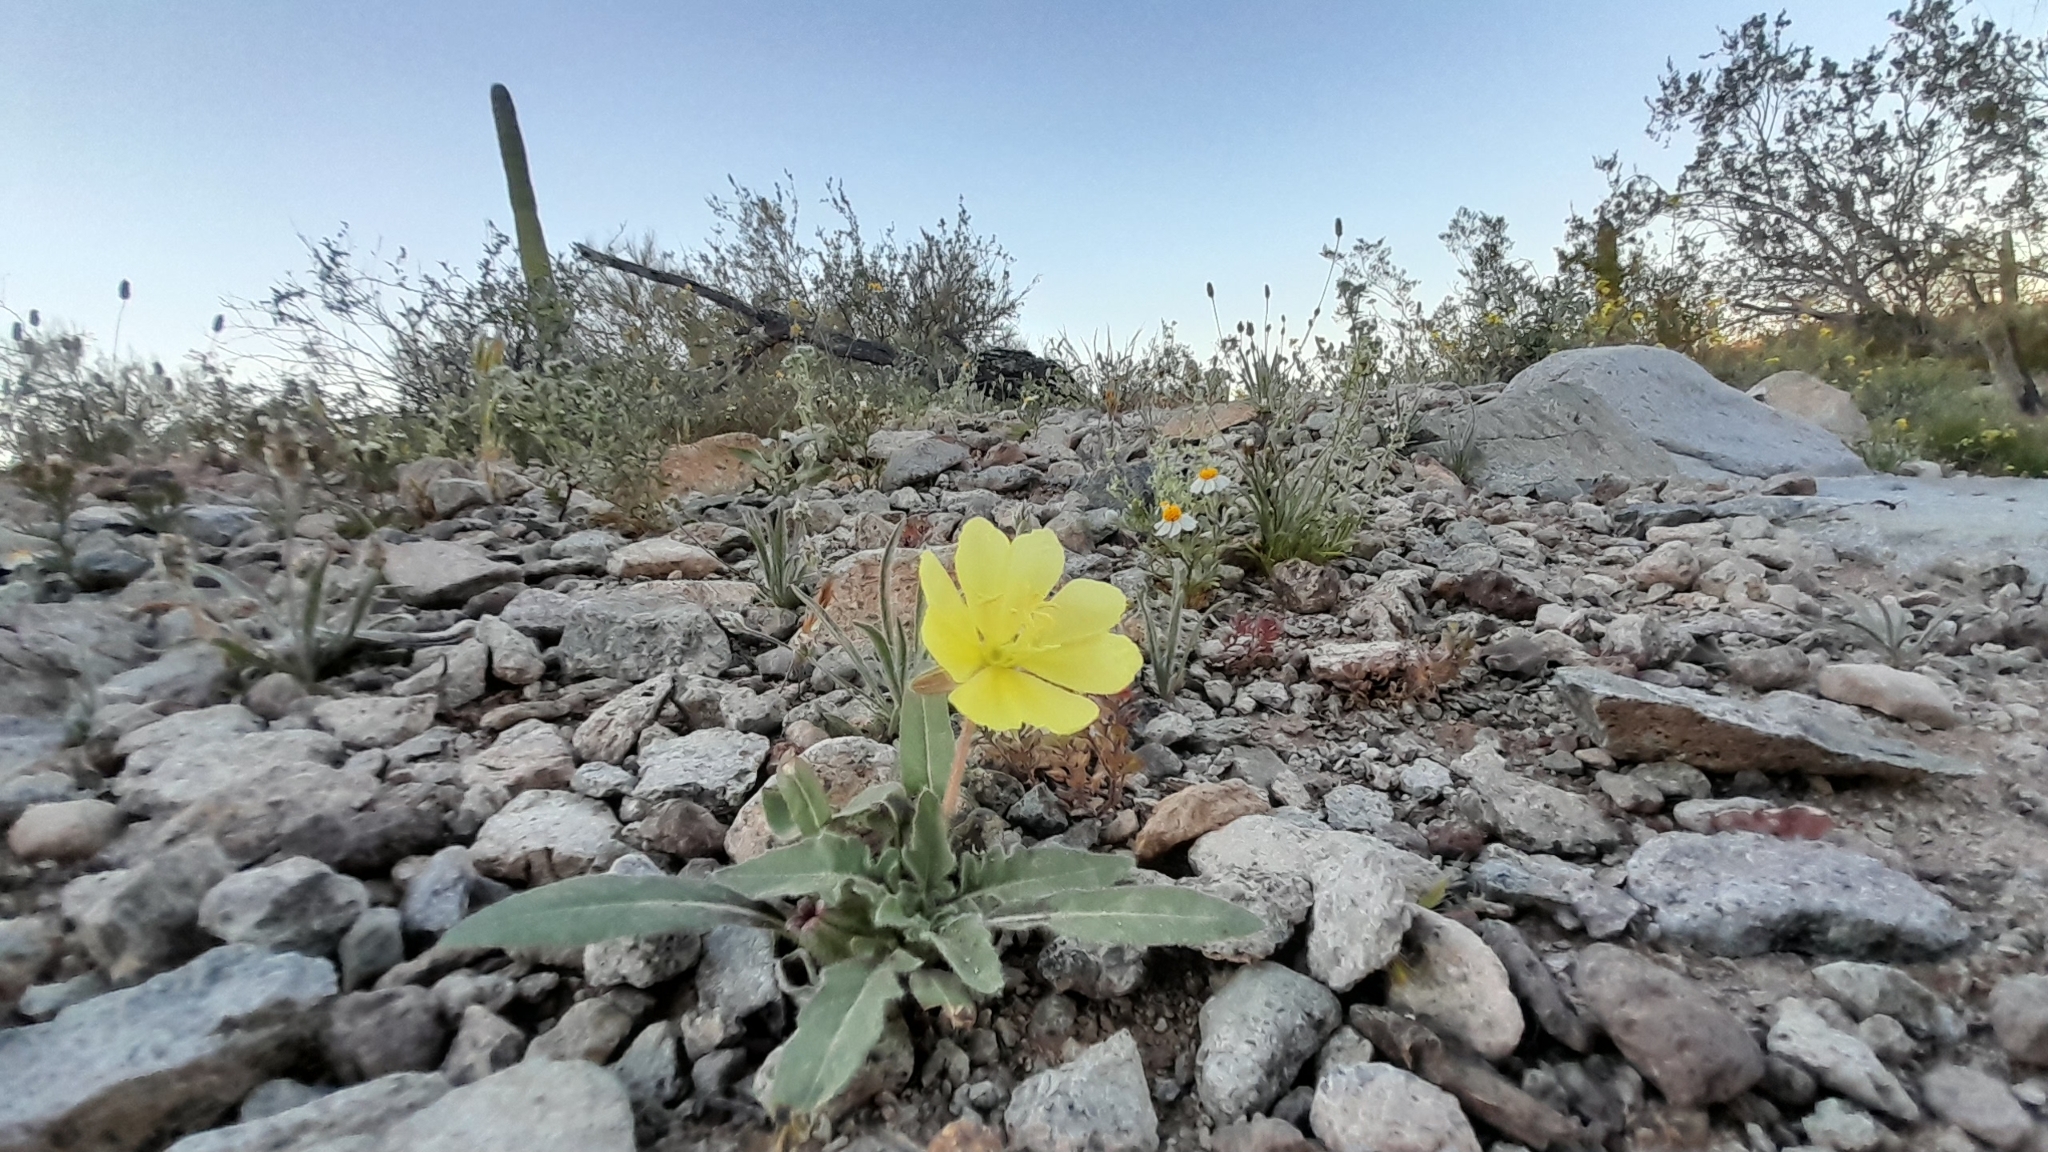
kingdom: Plantae
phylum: Tracheophyta
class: Magnoliopsida
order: Myrtales
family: Onagraceae
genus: Oenothera
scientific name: Oenothera primiveris
